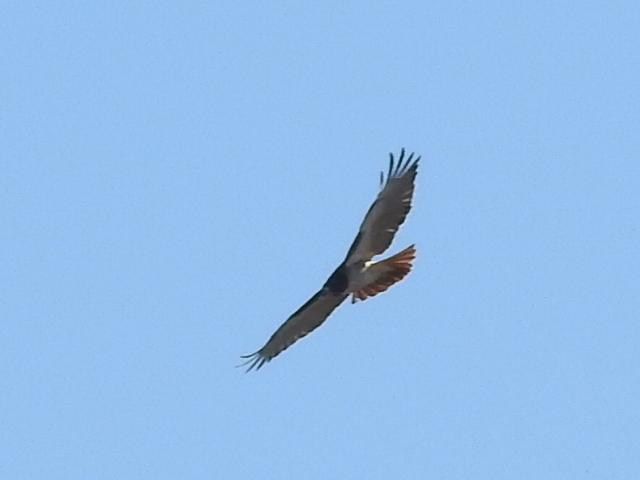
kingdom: Animalia
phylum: Chordata
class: Aves
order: Accipitriformes
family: Accipitridae
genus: Buteo
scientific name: Buteo jamaicensis
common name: Red-tailed hawk
